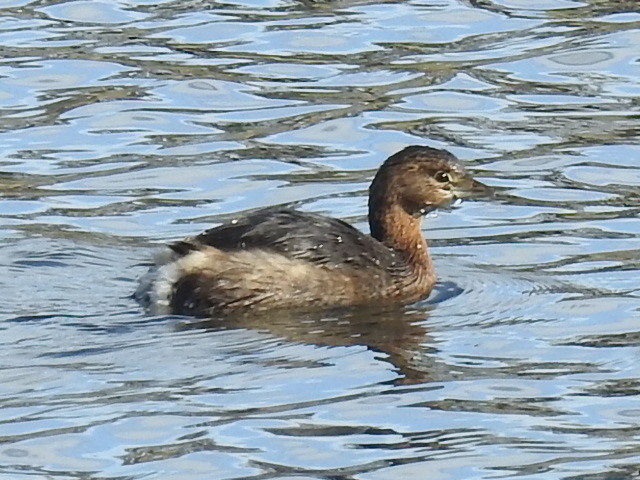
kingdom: Animalia
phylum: Chordata
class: Aves
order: Podicipediformes
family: Podicipedidae
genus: Podilymbus
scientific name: Podilymbus podiceps
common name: Pied-billed grebe
